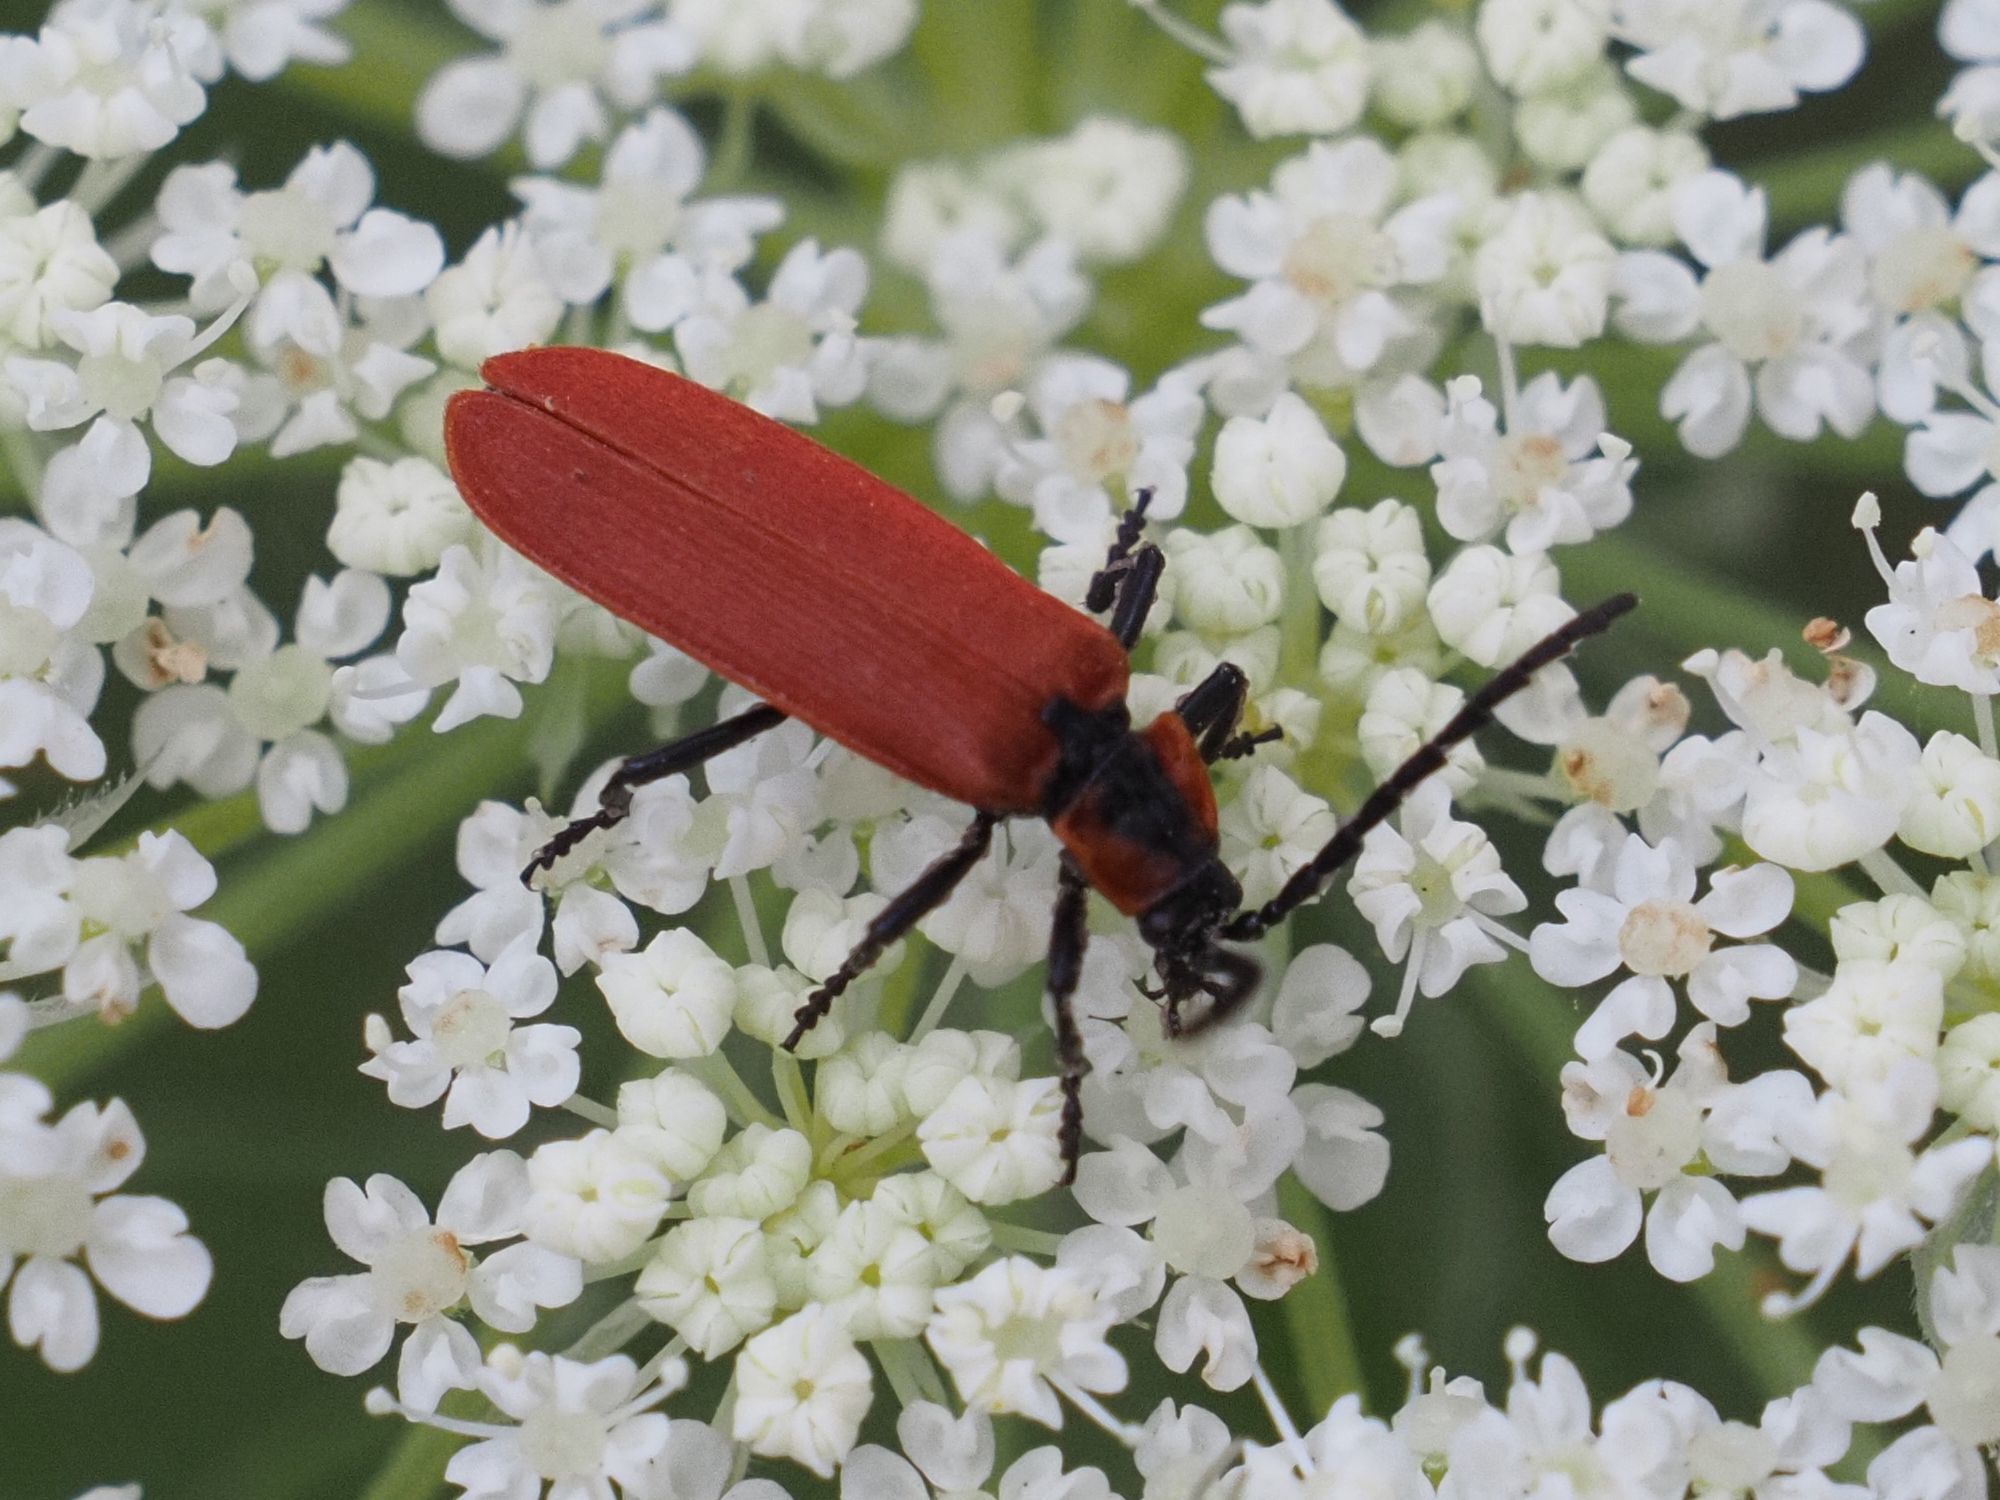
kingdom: Animalia
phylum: Arthropoda
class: Insecta
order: Coleoptera
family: Lycidae
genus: Lygistopterus
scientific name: Lygistopterus sanguineus
